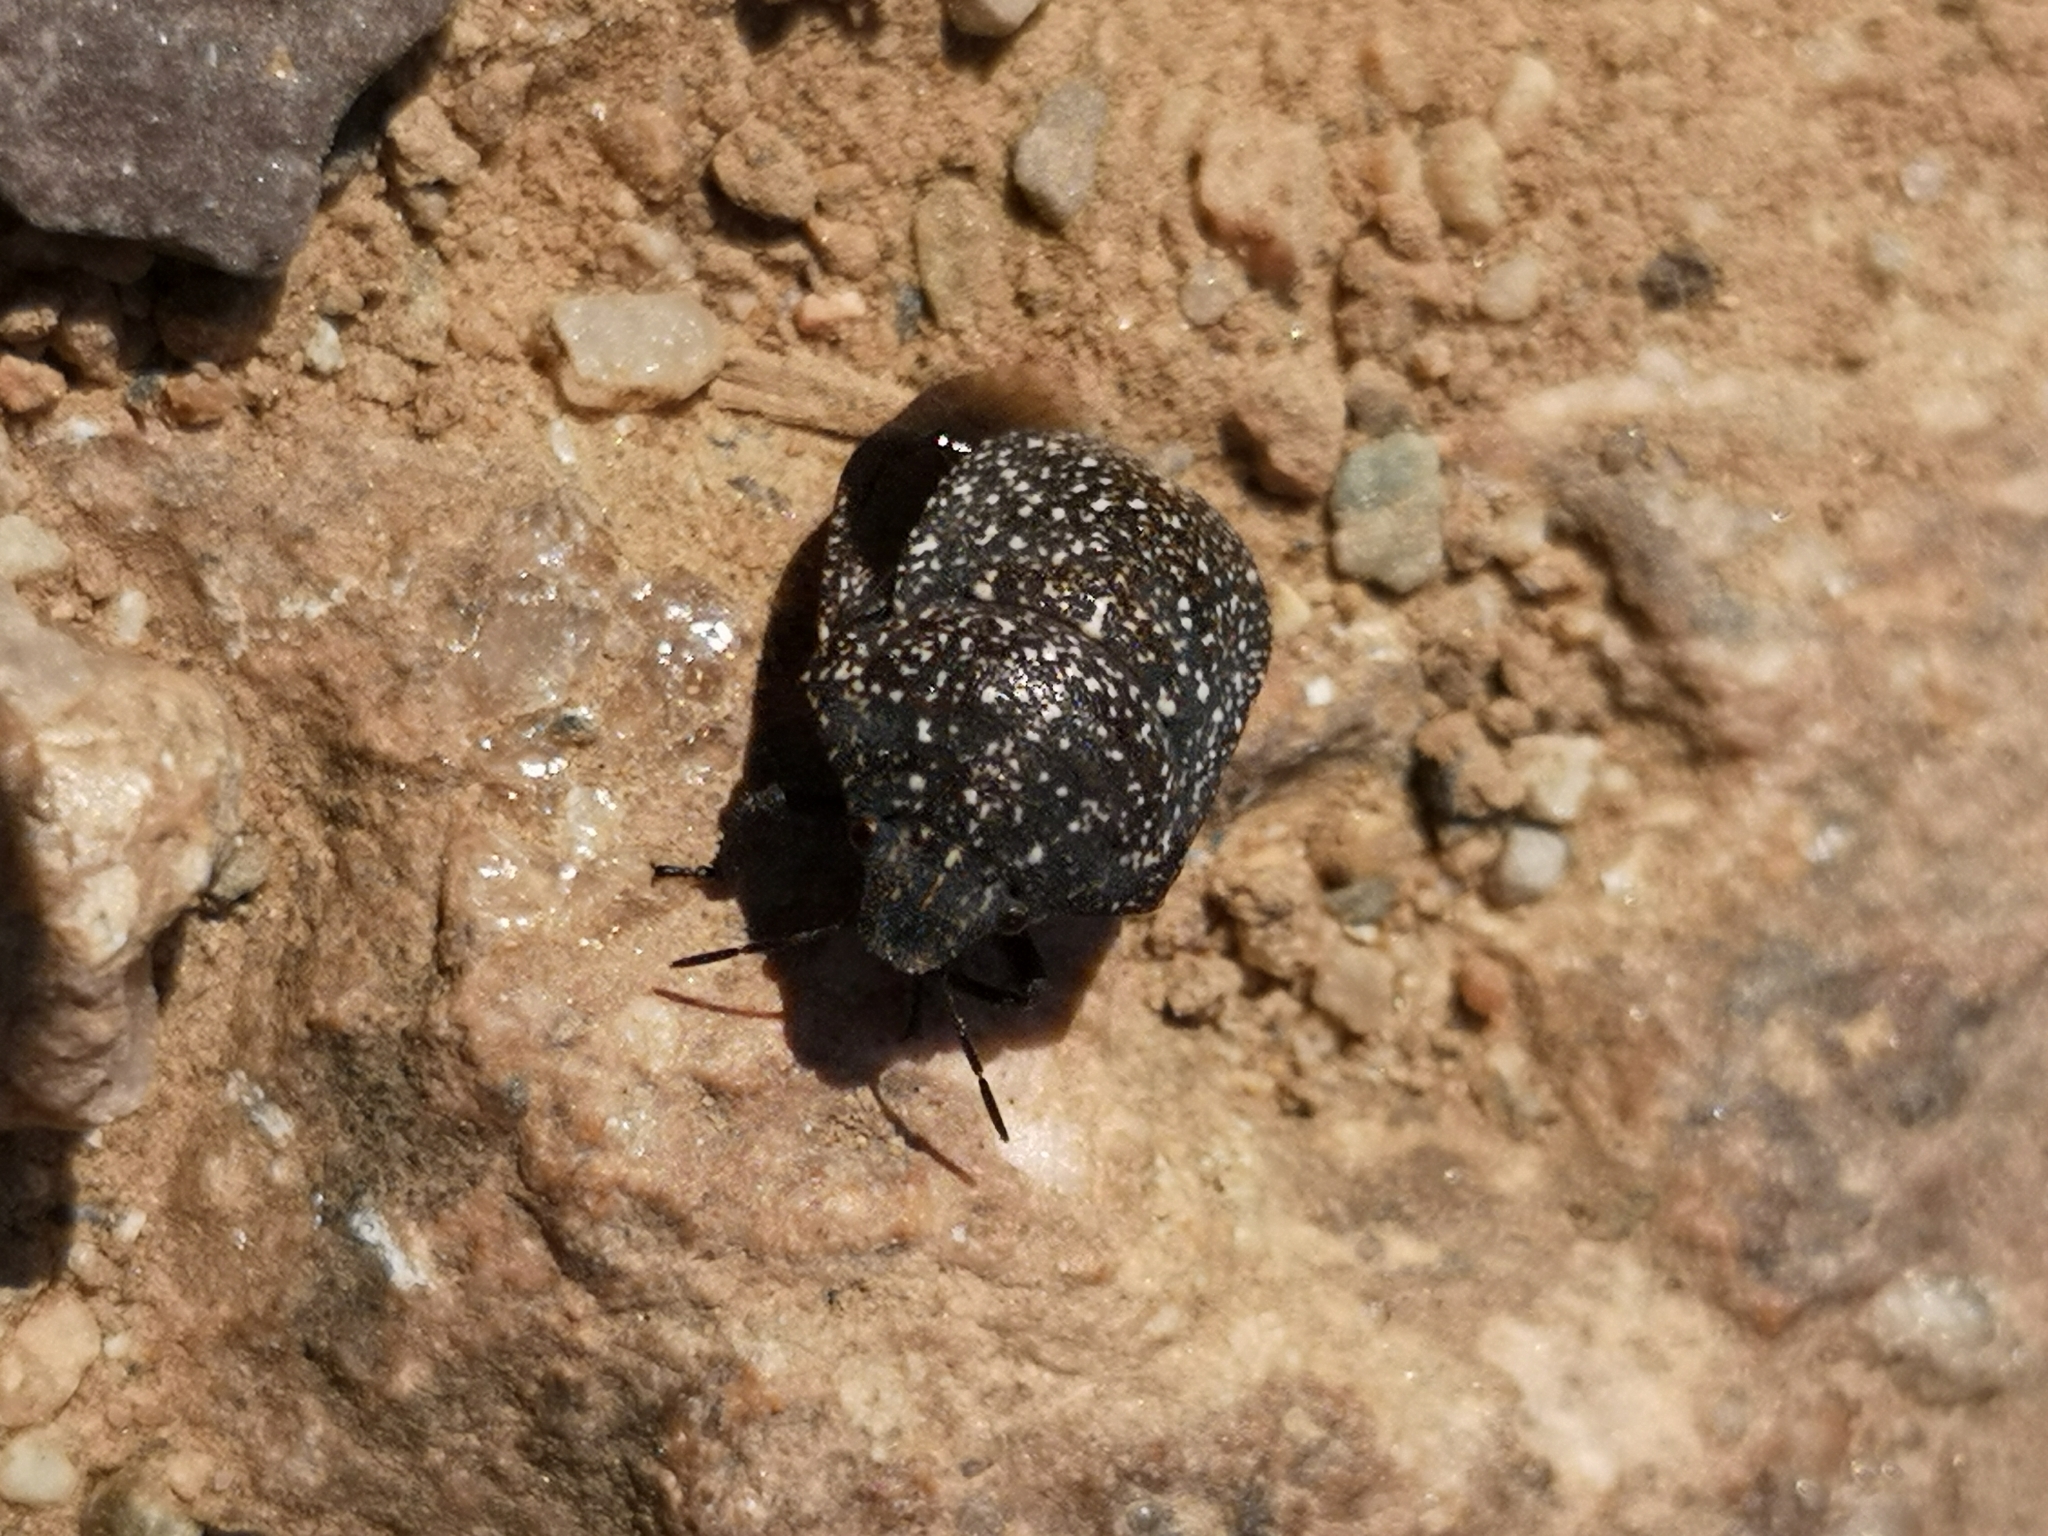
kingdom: Animalia
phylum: Arthropoda
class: Insecta
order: Hemiptera
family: Scutelleridae
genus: Psacasta
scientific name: Psacasta exanthematica
